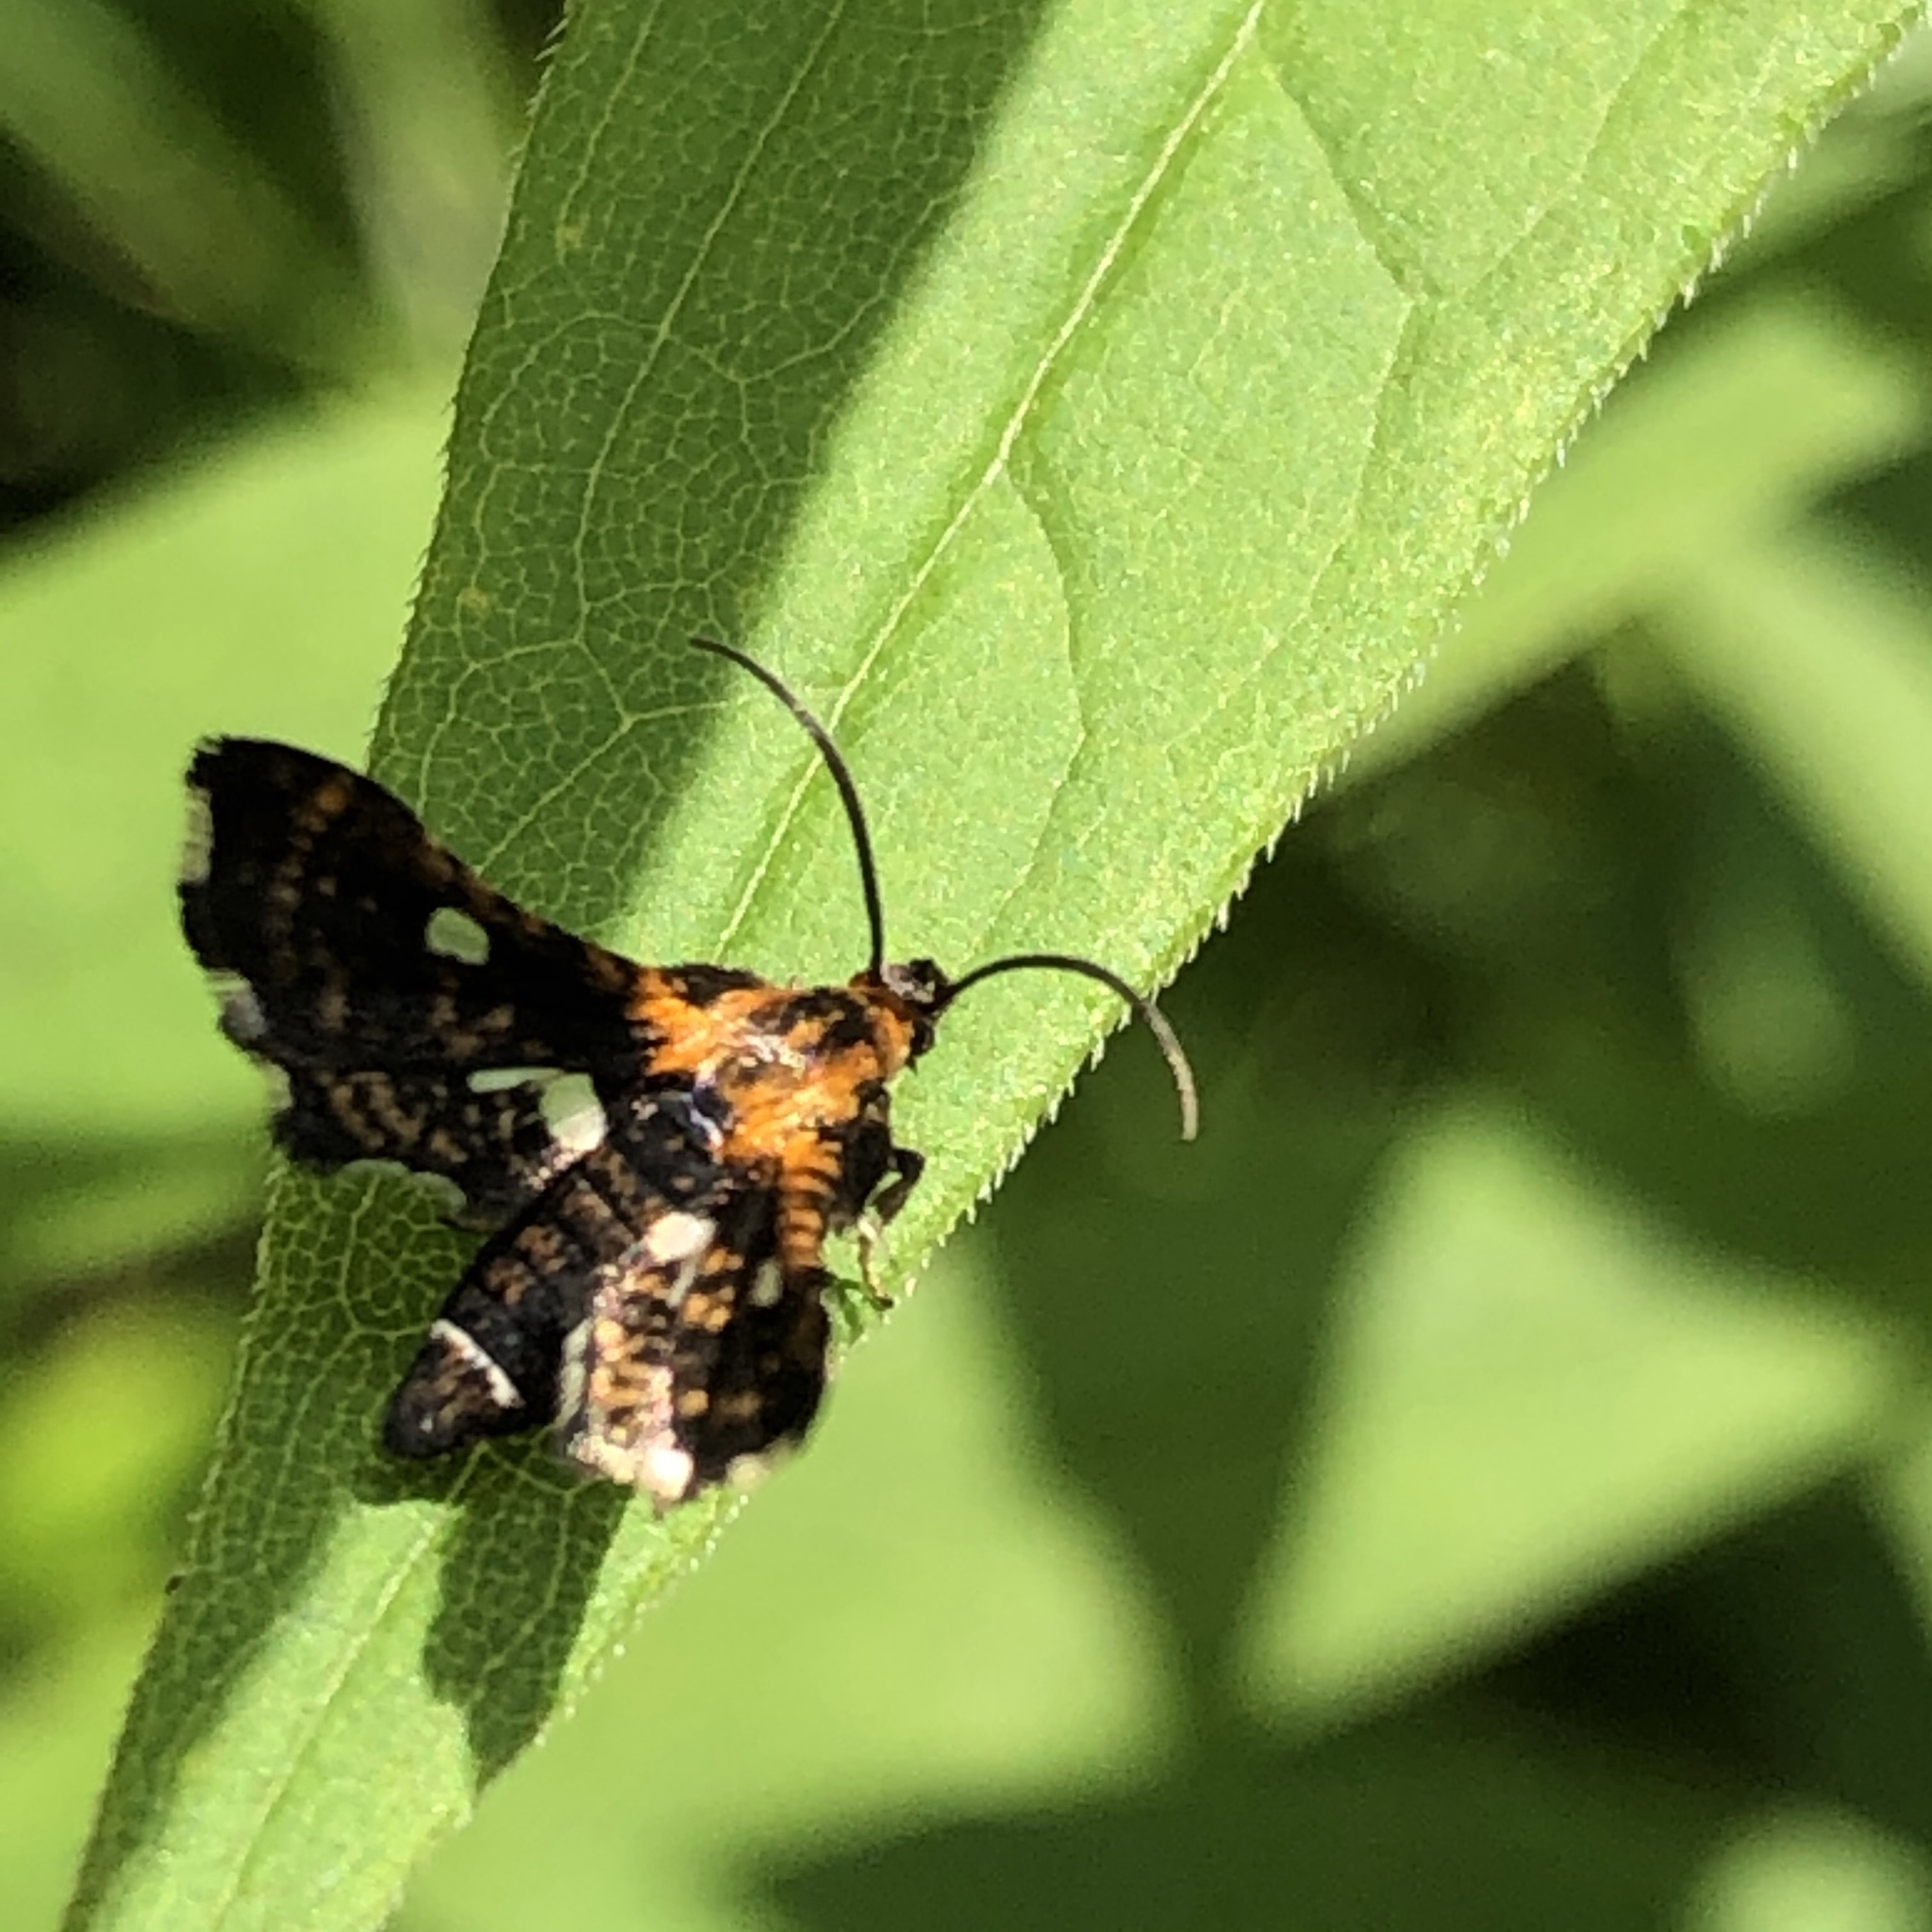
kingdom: Animalia
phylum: Arthropoda
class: Insecta
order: Lepidoptera
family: Thyrididae
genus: Thyris
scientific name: Thyris maculata
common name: Spotted thyris moth
